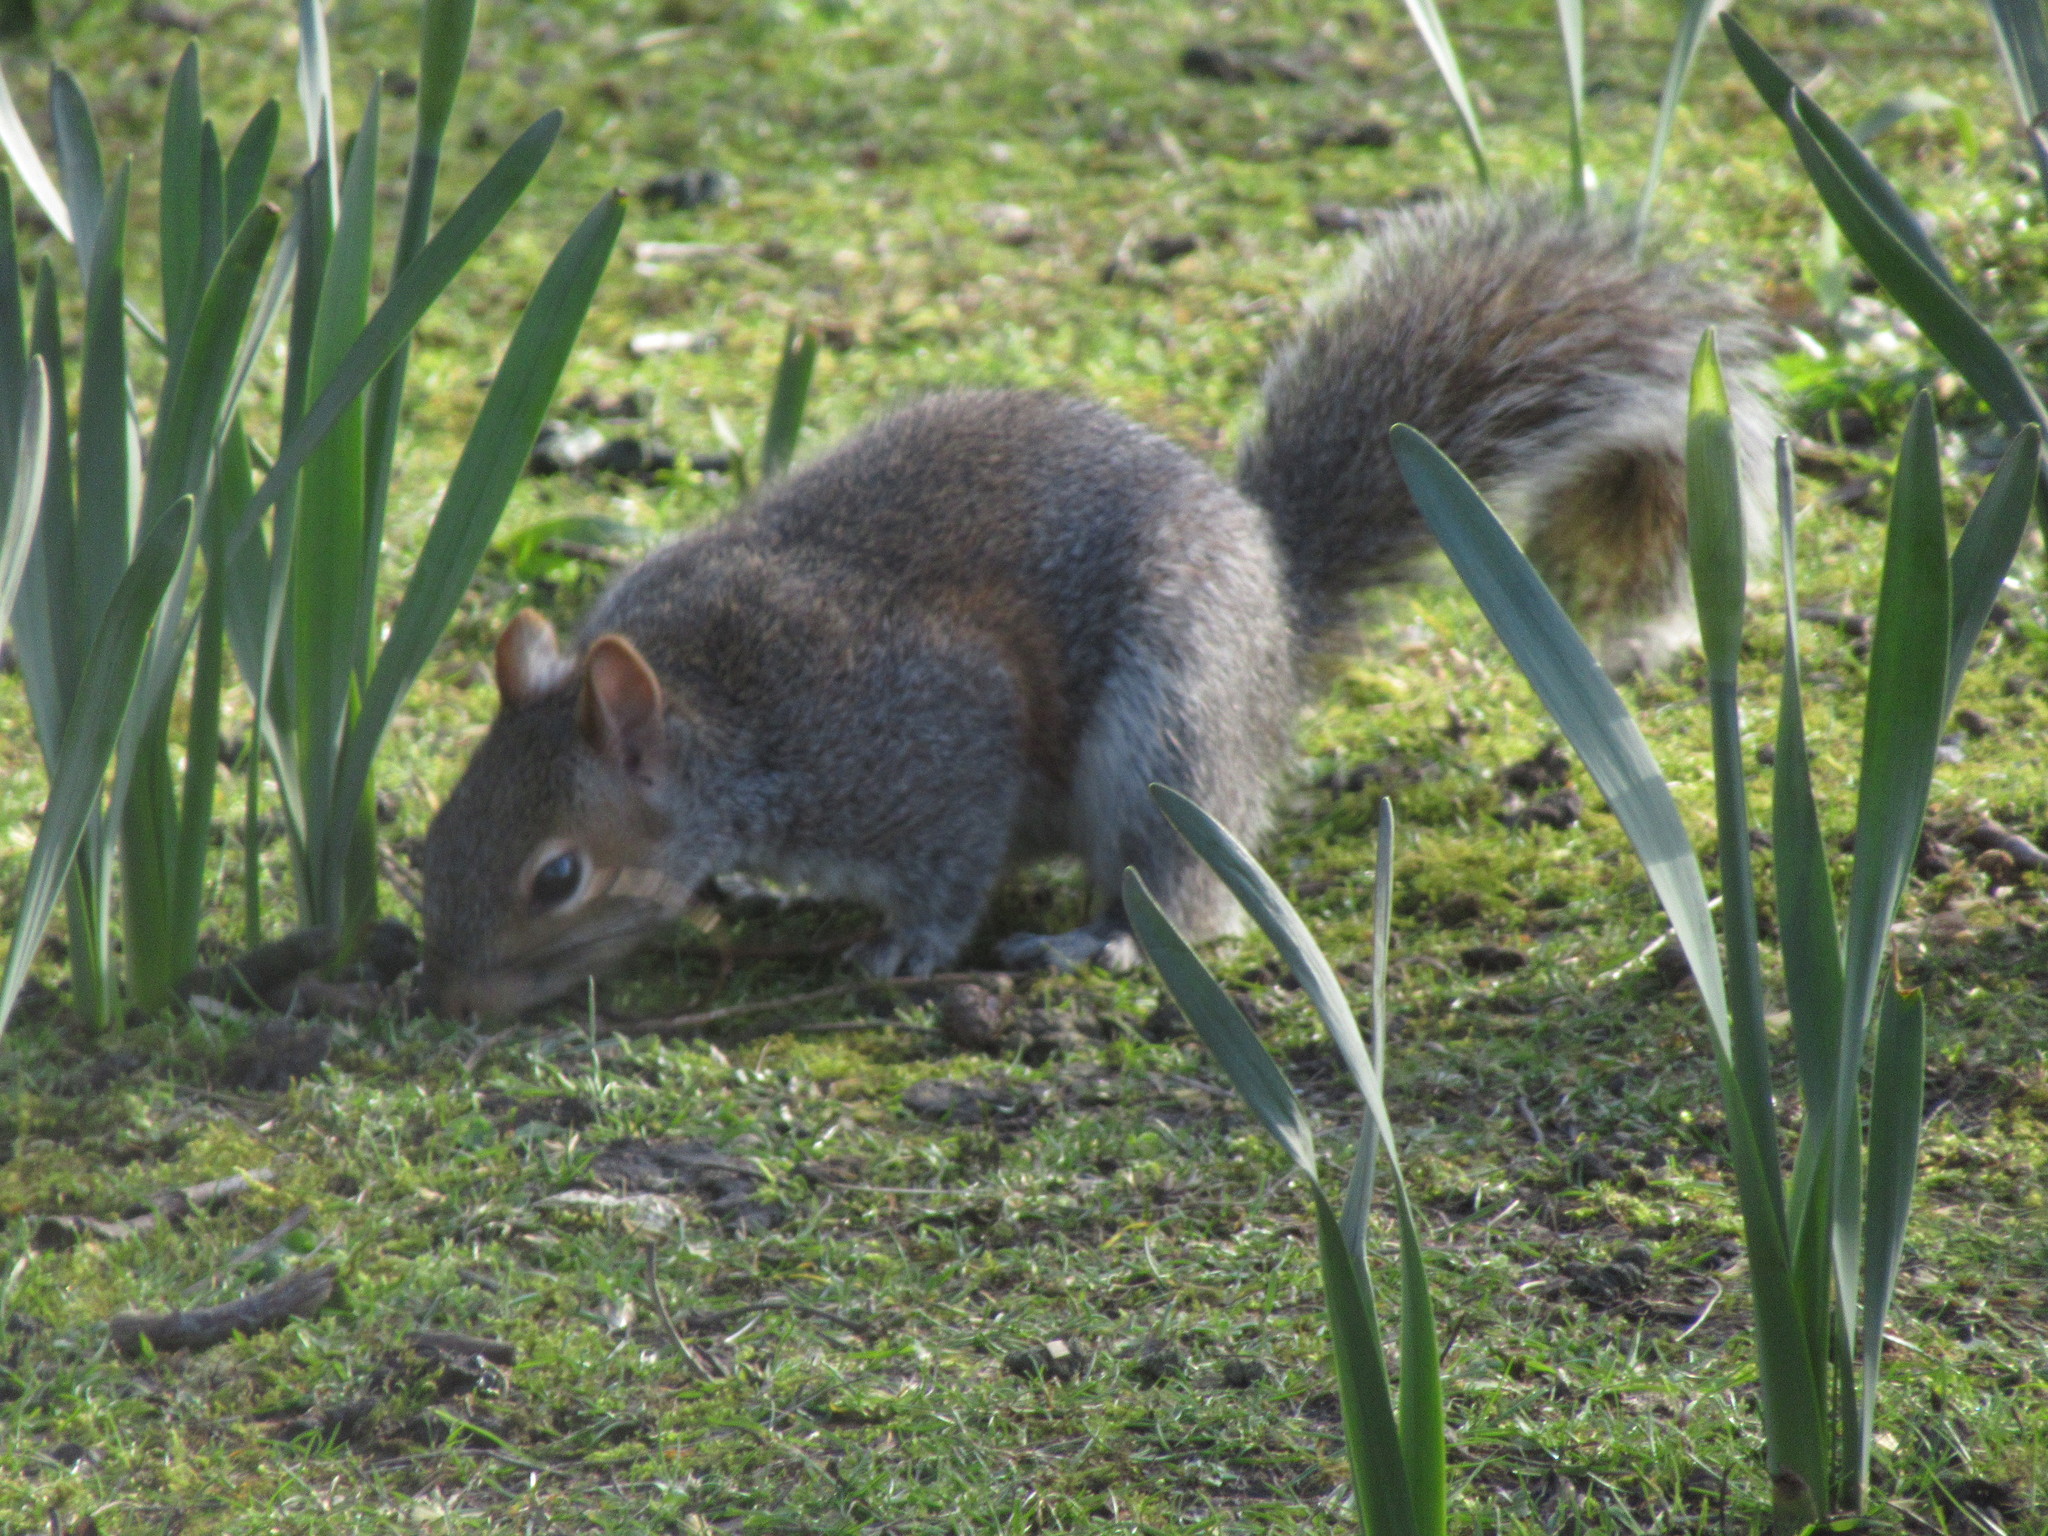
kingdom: Animalia
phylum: Chordata
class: Mammalia
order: Rodentia
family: Sciuridae
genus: Sciurus
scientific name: Sciurus carolinensis
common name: Eastern gray squirrel
